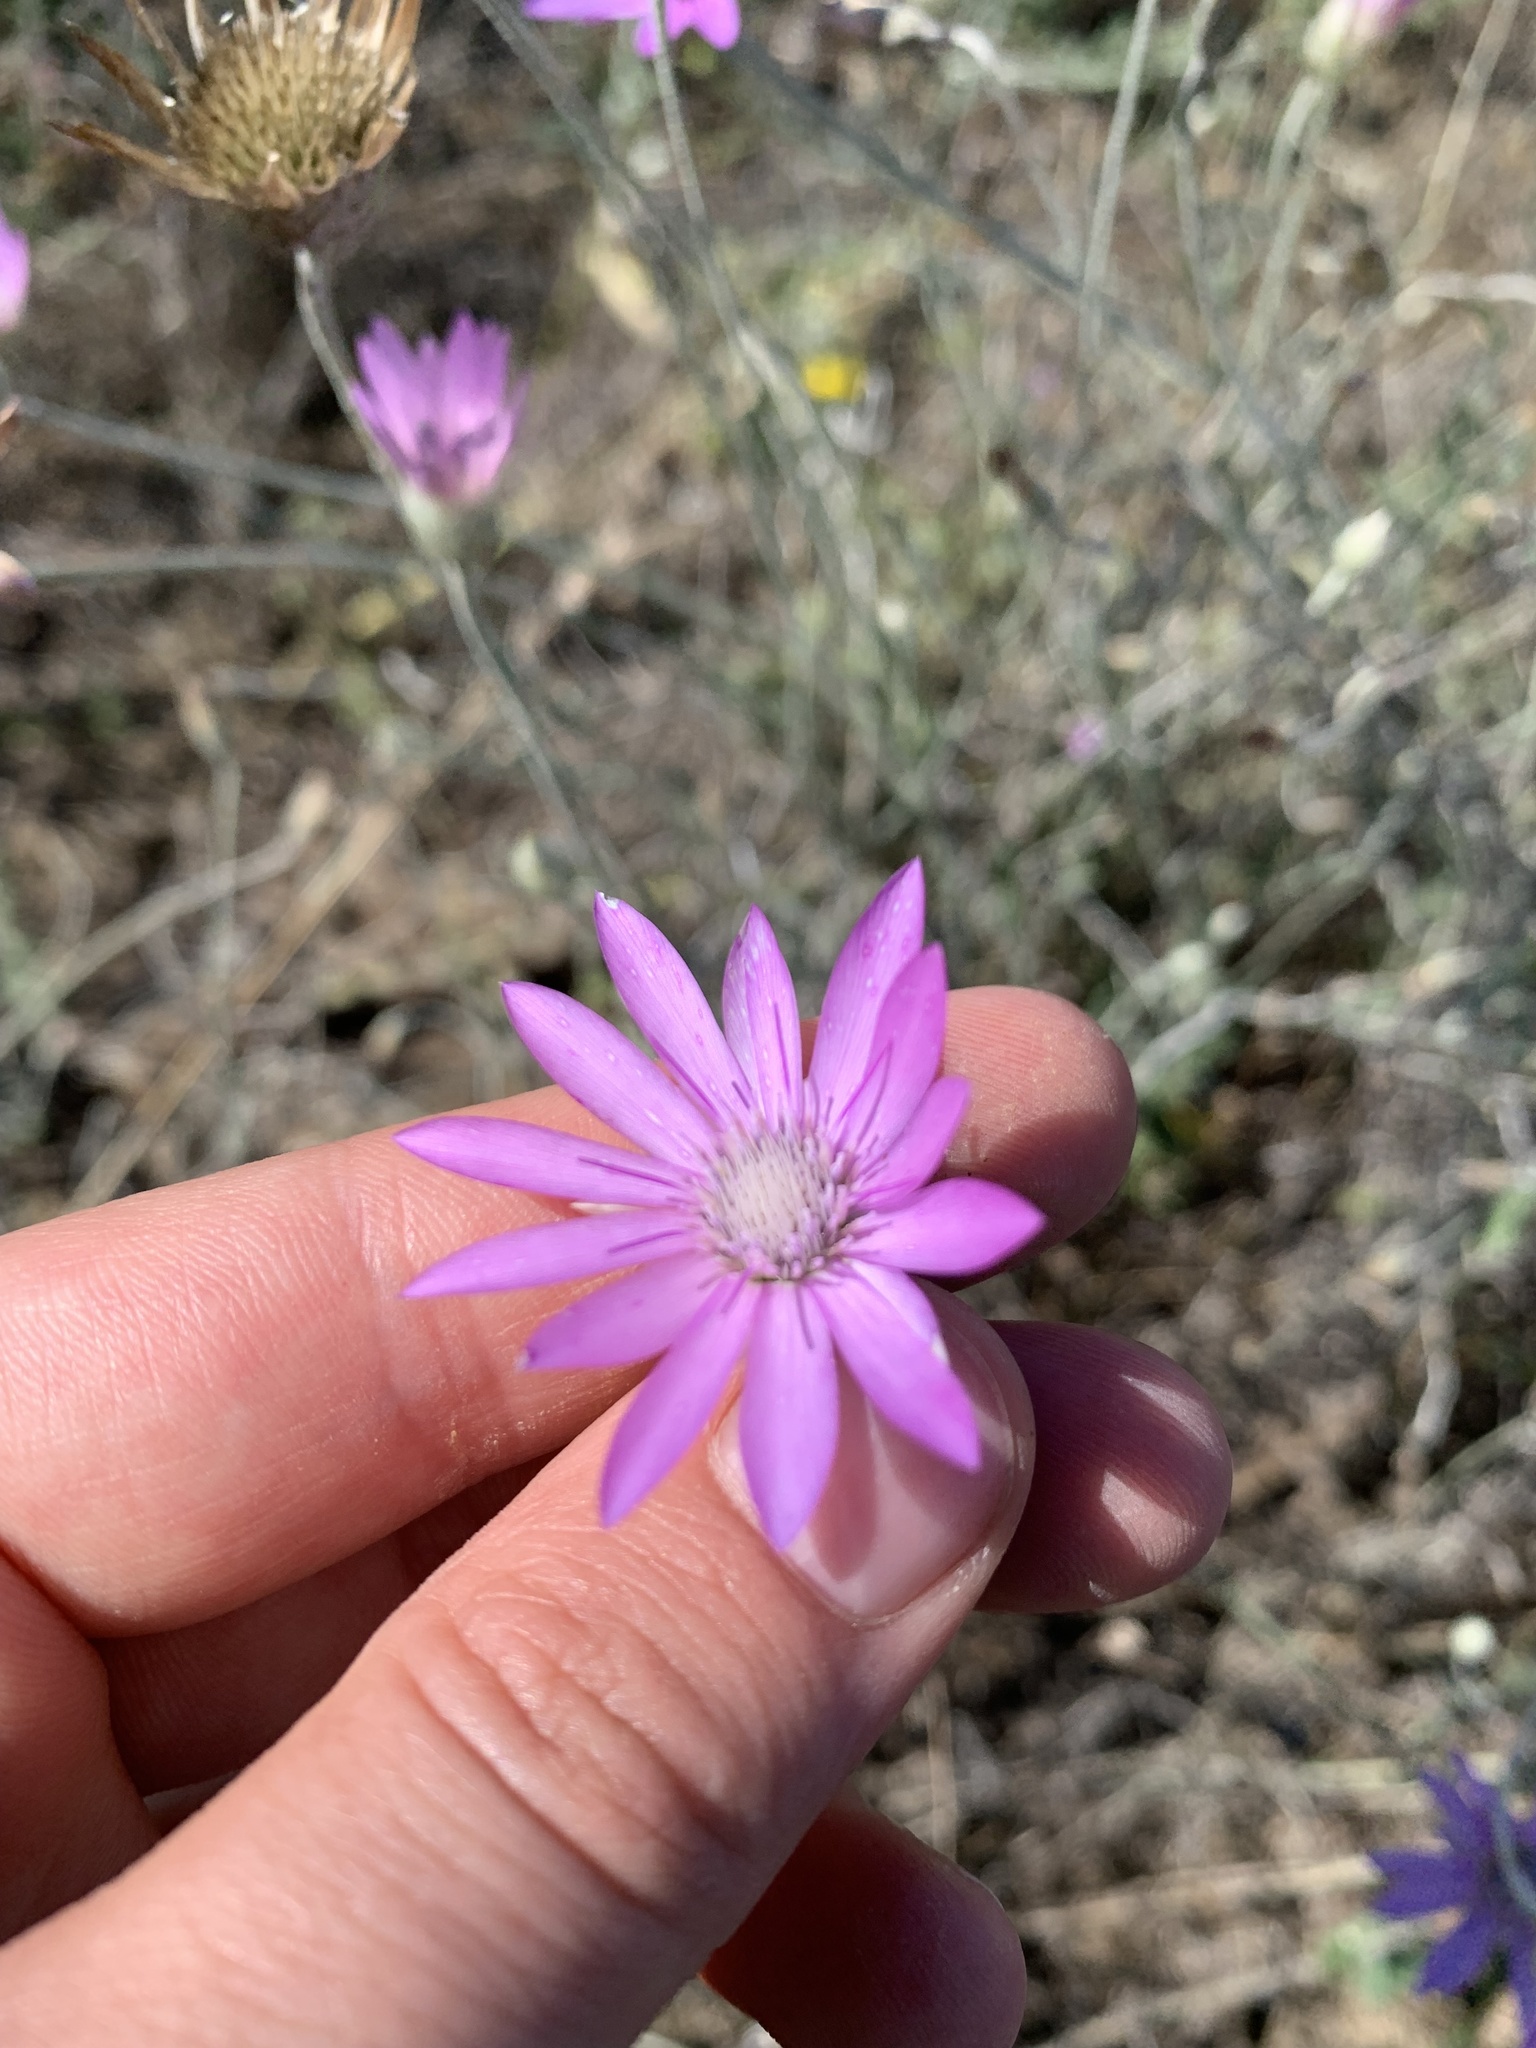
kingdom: Plantae
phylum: Tracheophyta
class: Magnoliopsida
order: Asterales
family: Asteraceae
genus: Xeranthemum
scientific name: Xeranthemum annuum
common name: Immortelle
